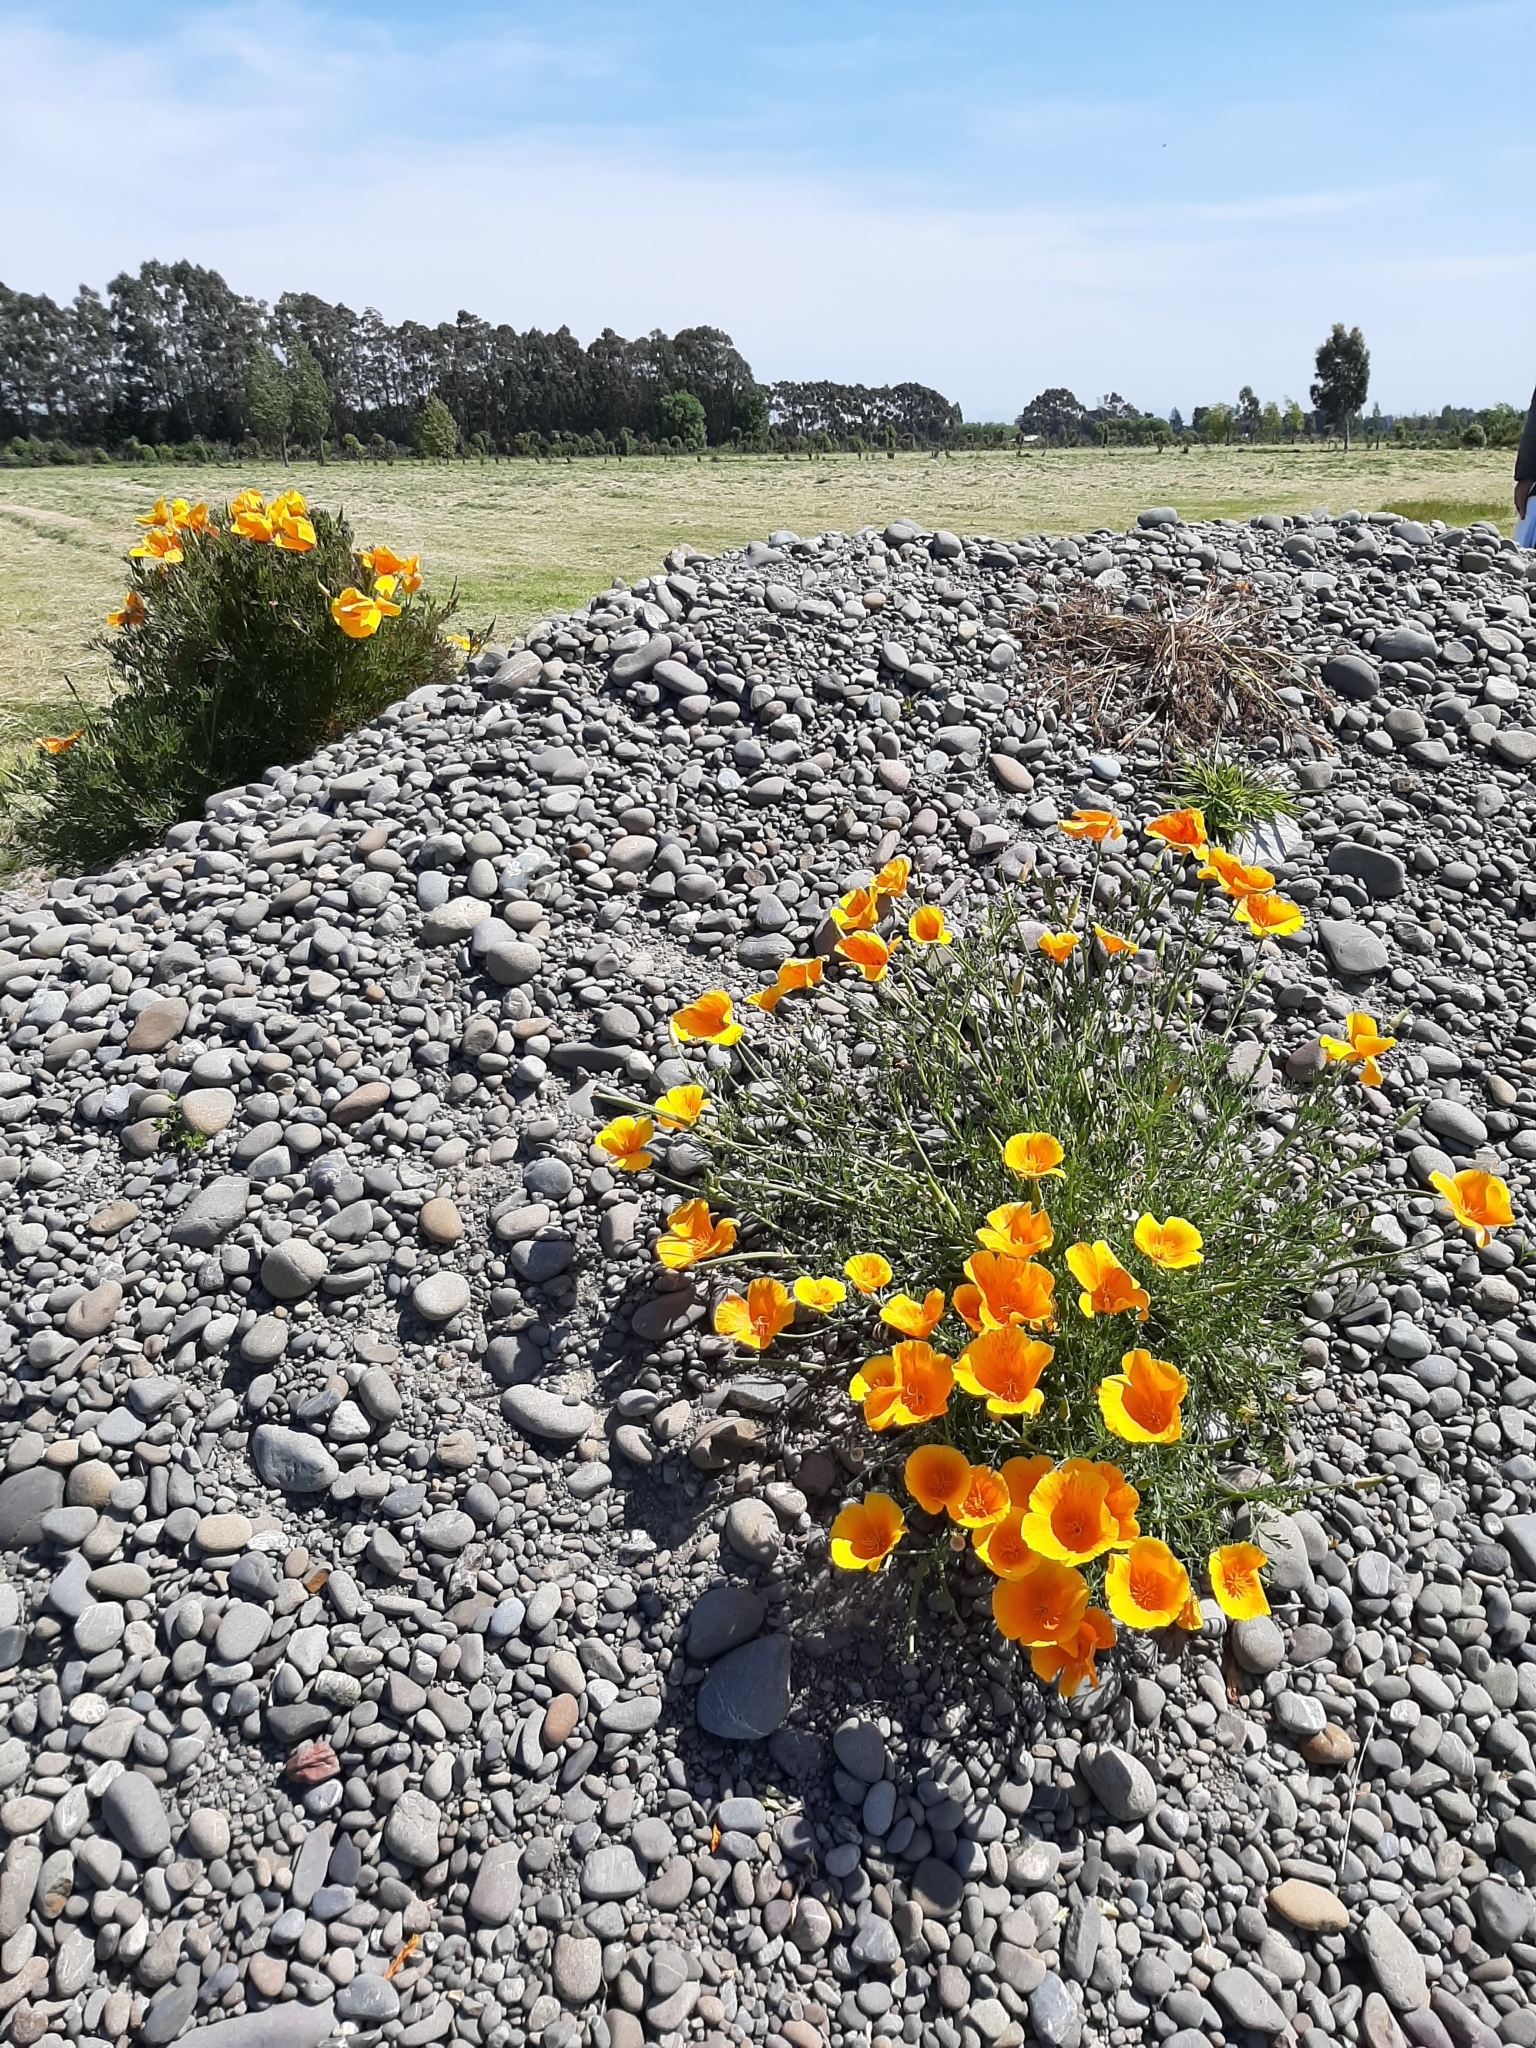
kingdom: Plantae
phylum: Tracheophyta
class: Magnoliopsida
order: Ranunculales
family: Papaveraceae
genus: Eschscholzia
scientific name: Eschscholzia californica
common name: California poppy
